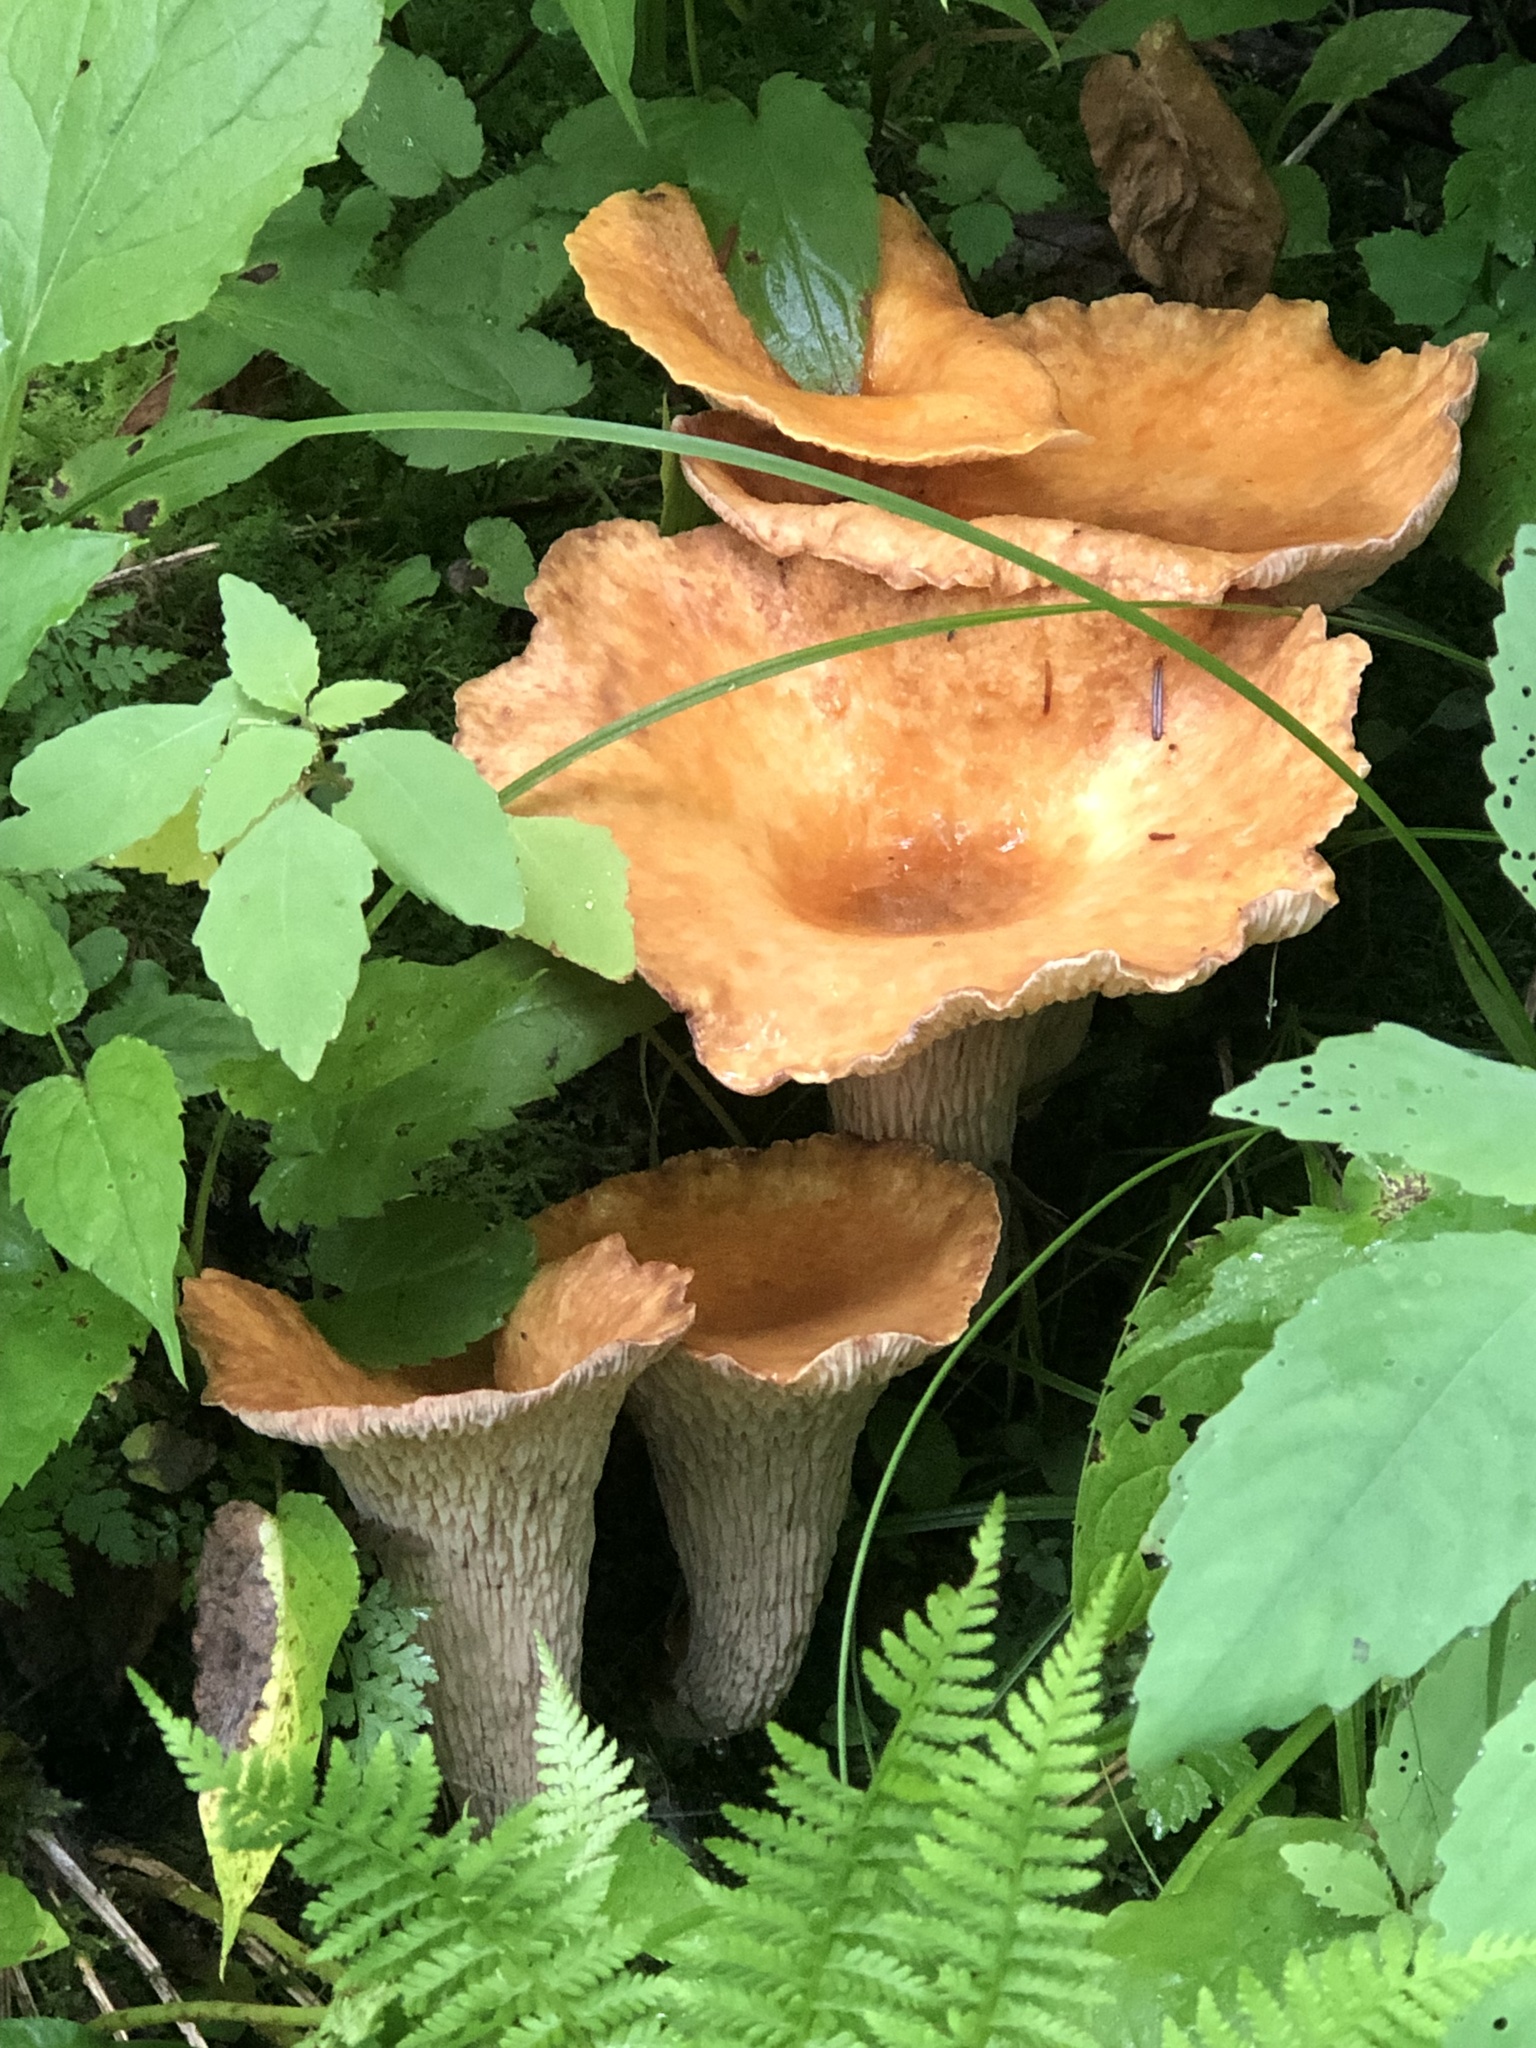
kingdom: Fungi
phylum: Basidiomycota
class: Agaricomycetes
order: Gomphales
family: Gomphaceae
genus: Turbinellus
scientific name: Turbinellus floccosus
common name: Scaly chanterelle
